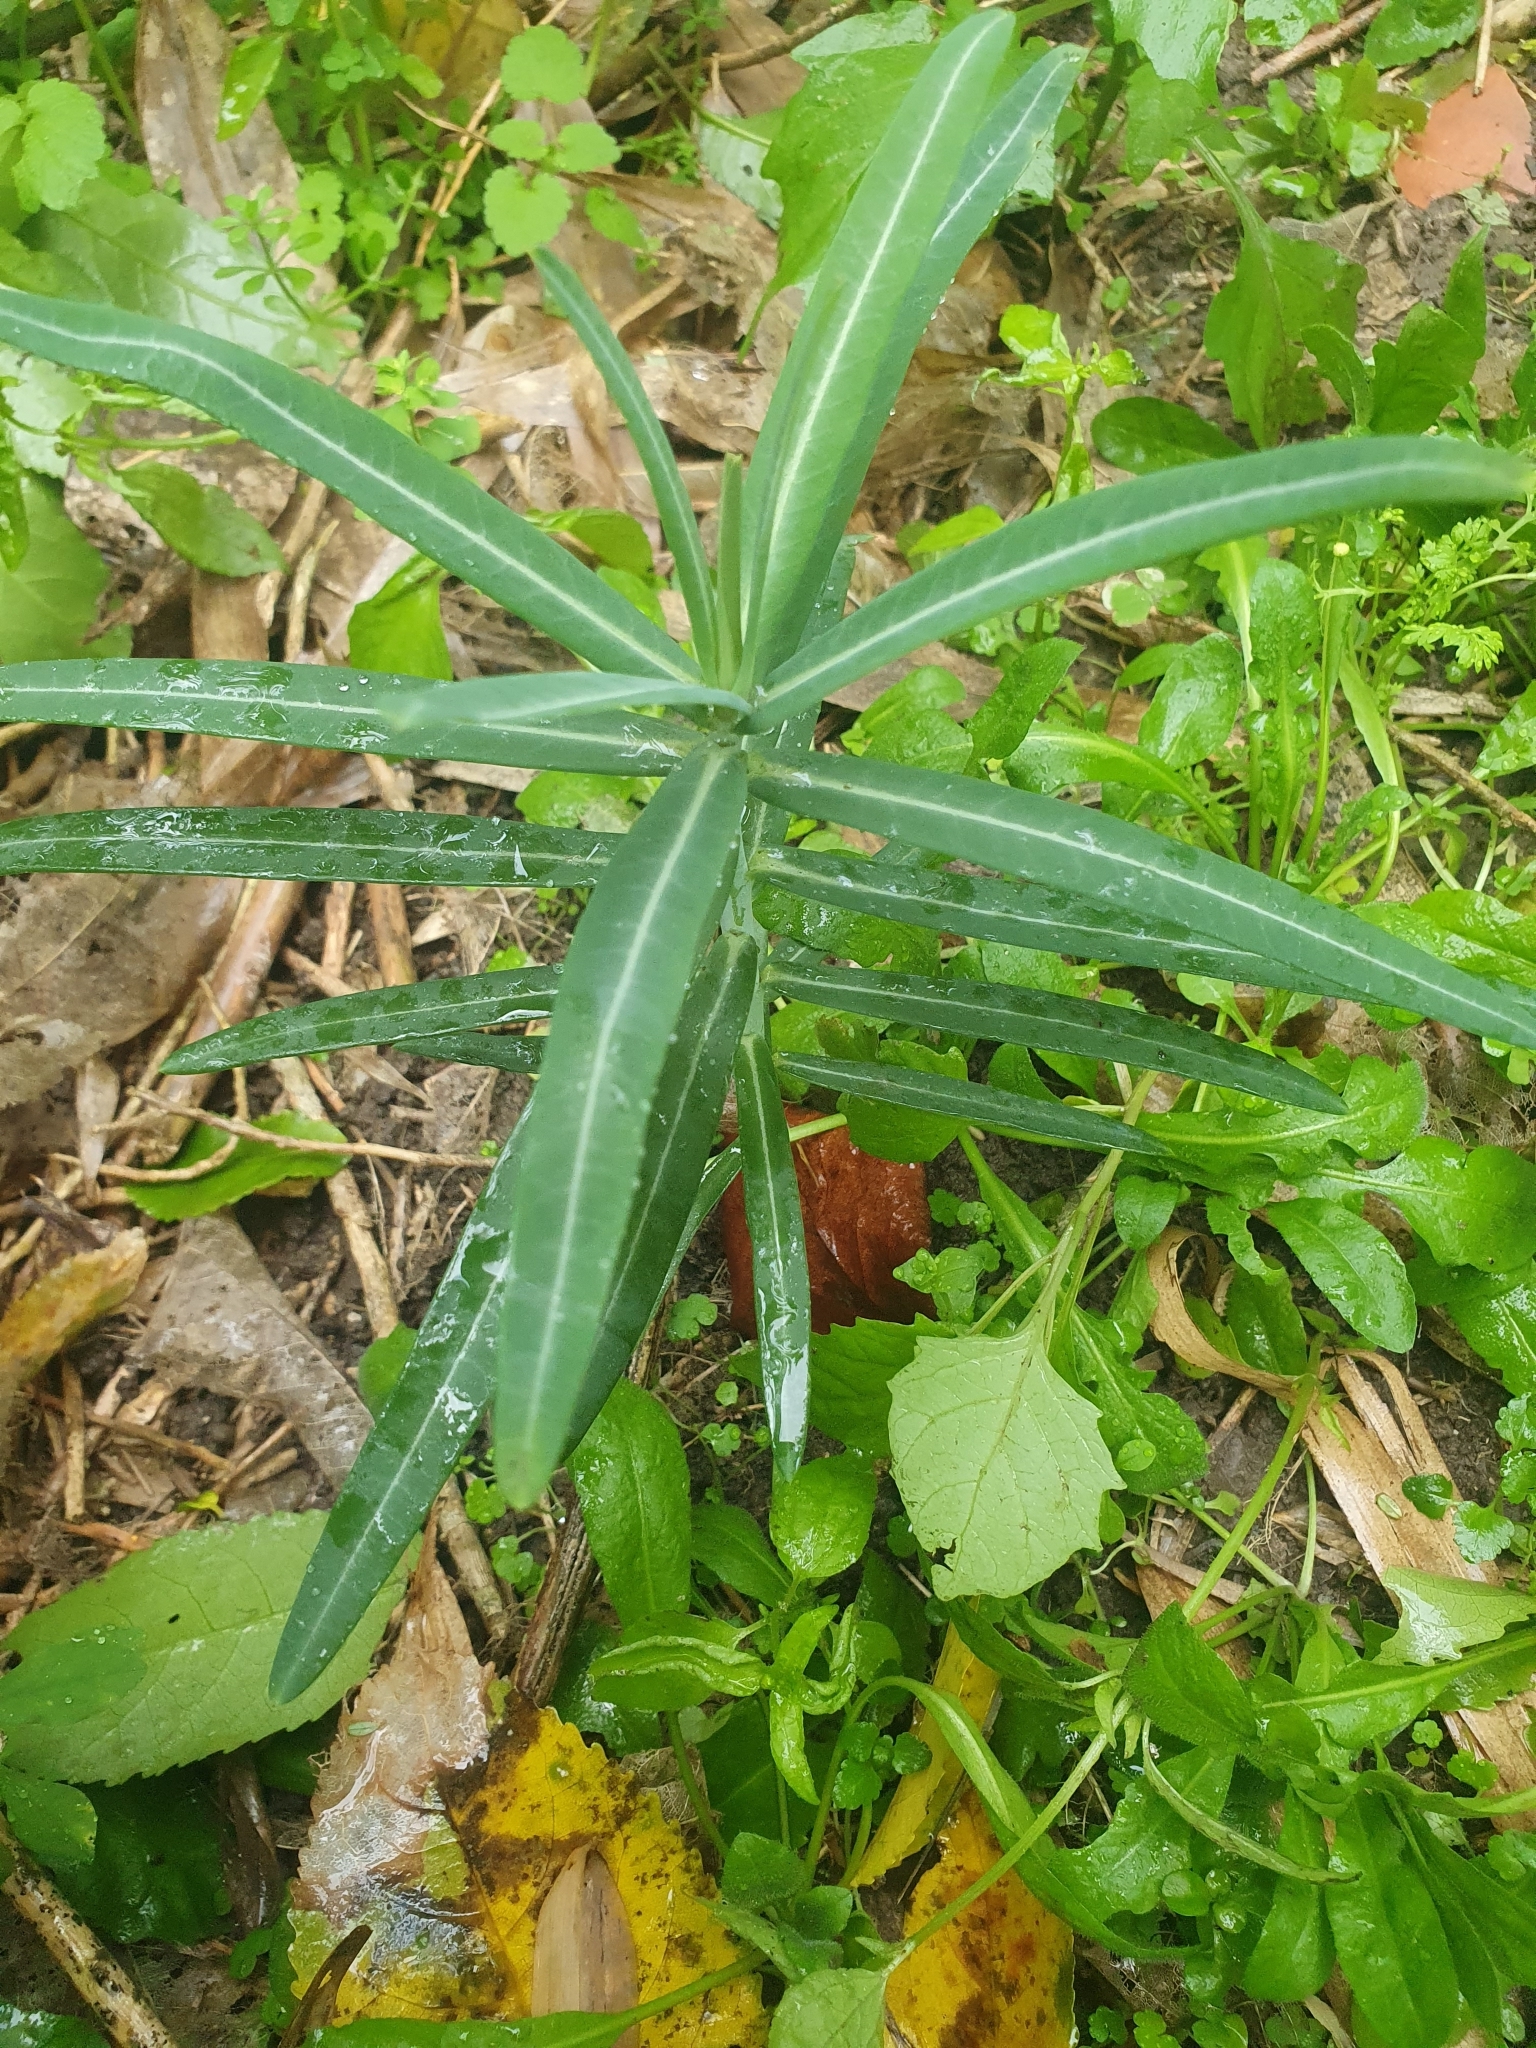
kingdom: Plantae
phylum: Tracheophyta
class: Magnoliopsida
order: Malpighiales
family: Euphorbiaceae
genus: Euphorbia
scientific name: Euphorbia lathyris
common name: Caper spurge
